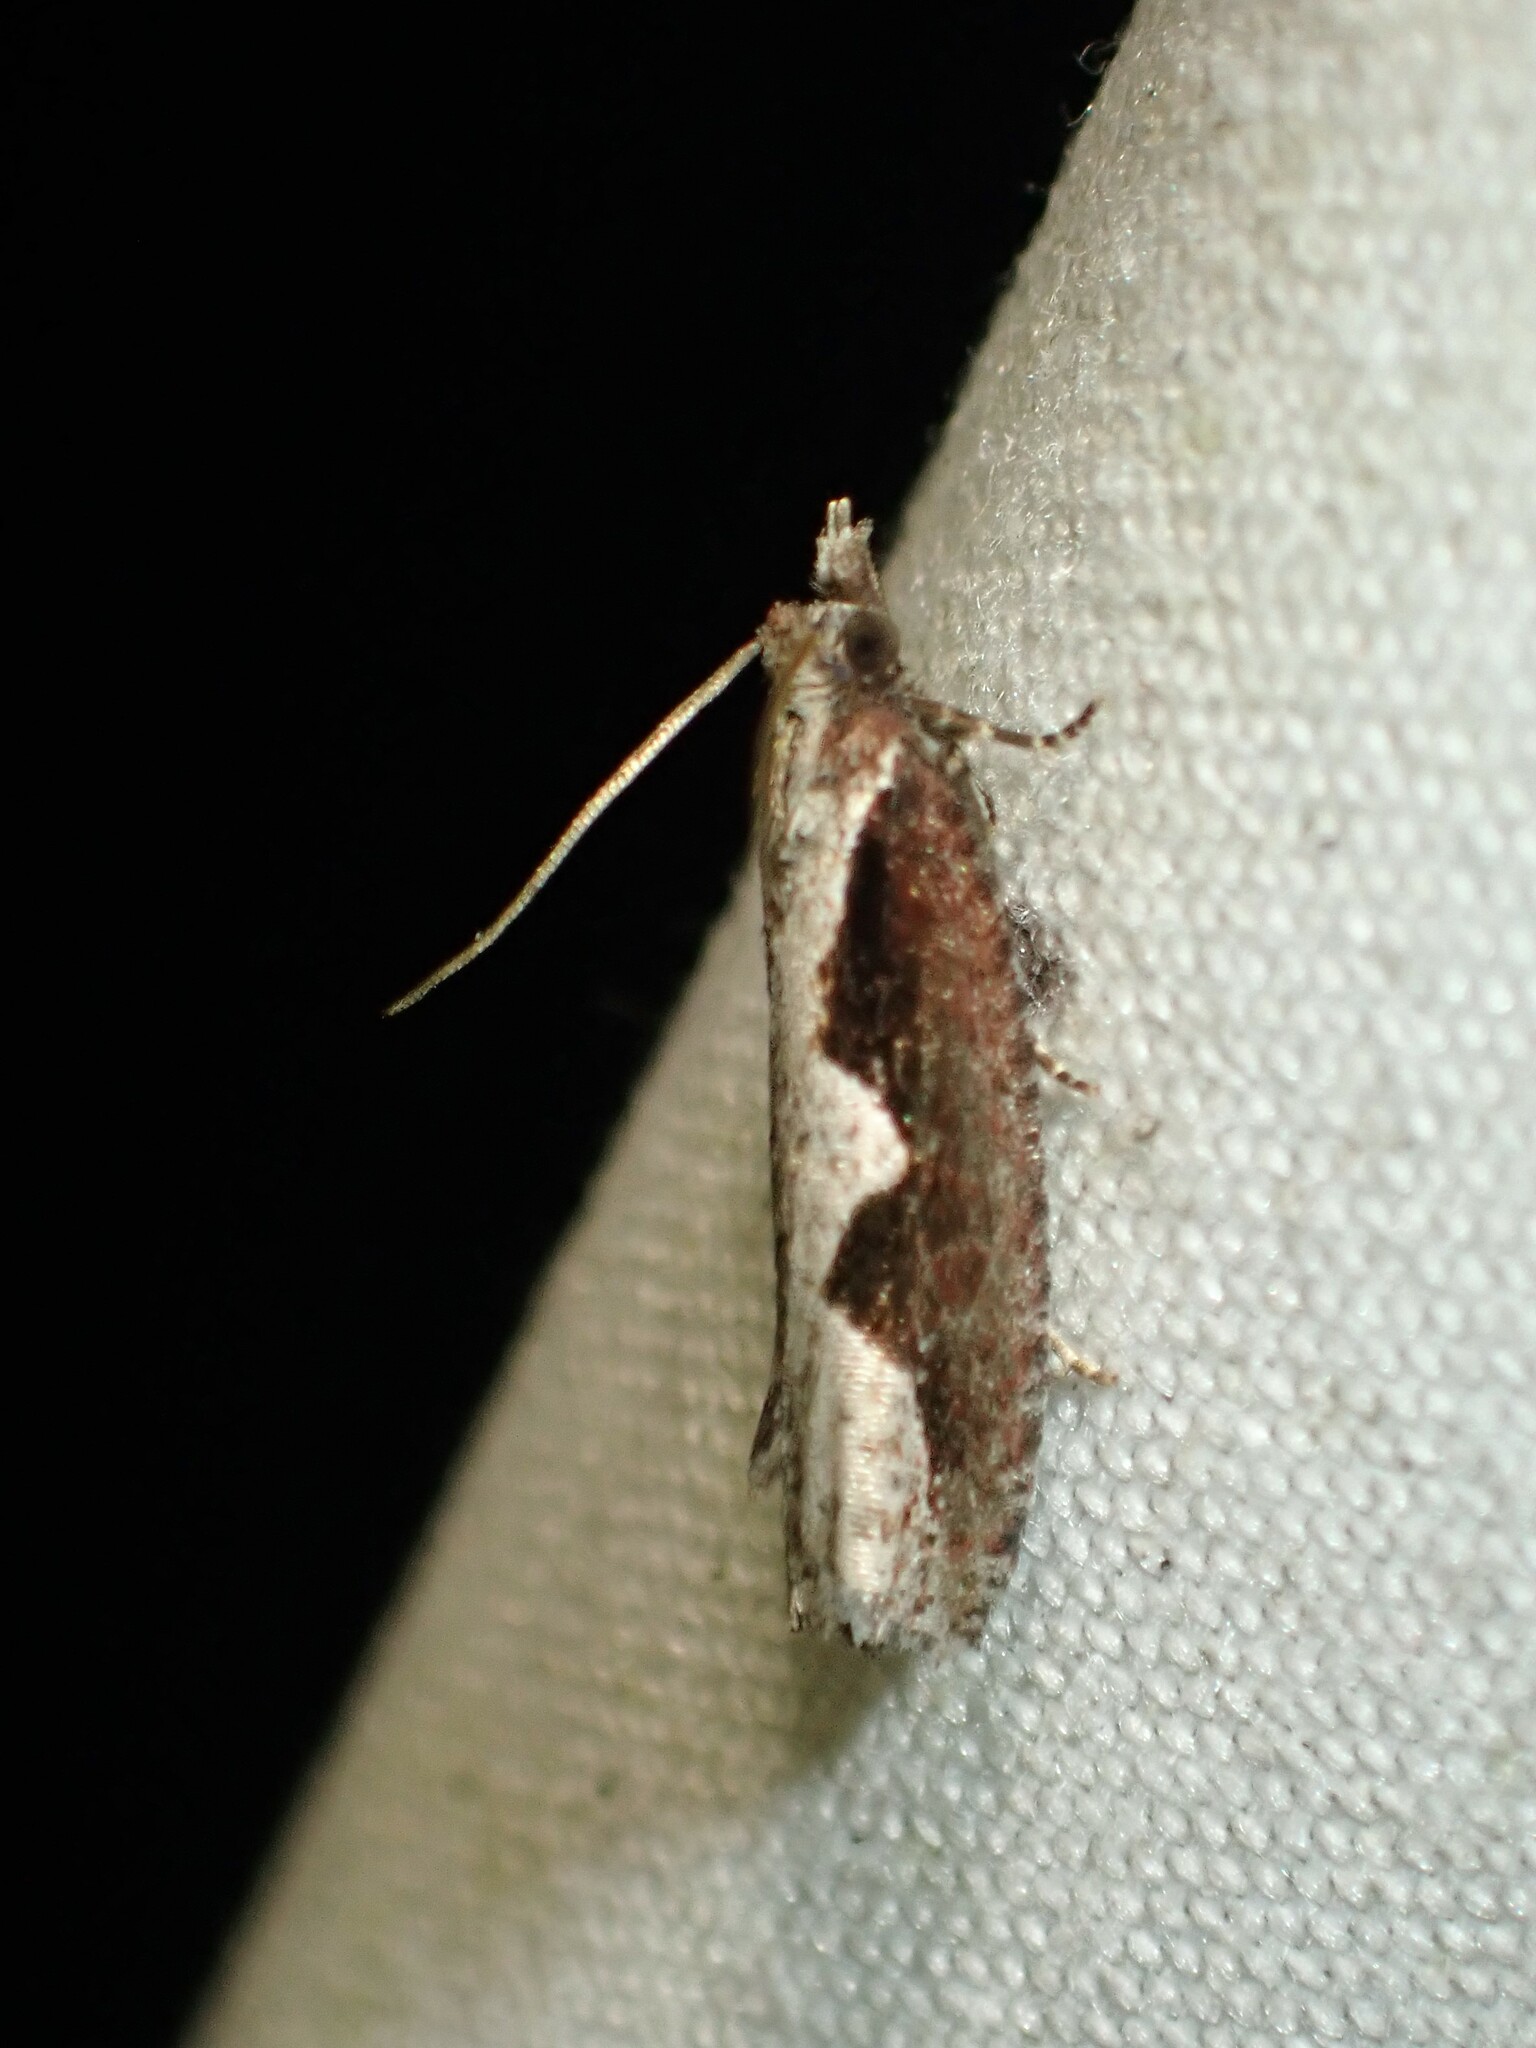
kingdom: Animalia
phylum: Arthropoda
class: Insecta
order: Lepidoptera
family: Tortricidae
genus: Epinotia
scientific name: Epinotia lindana
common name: Diamondback epinotia moth
